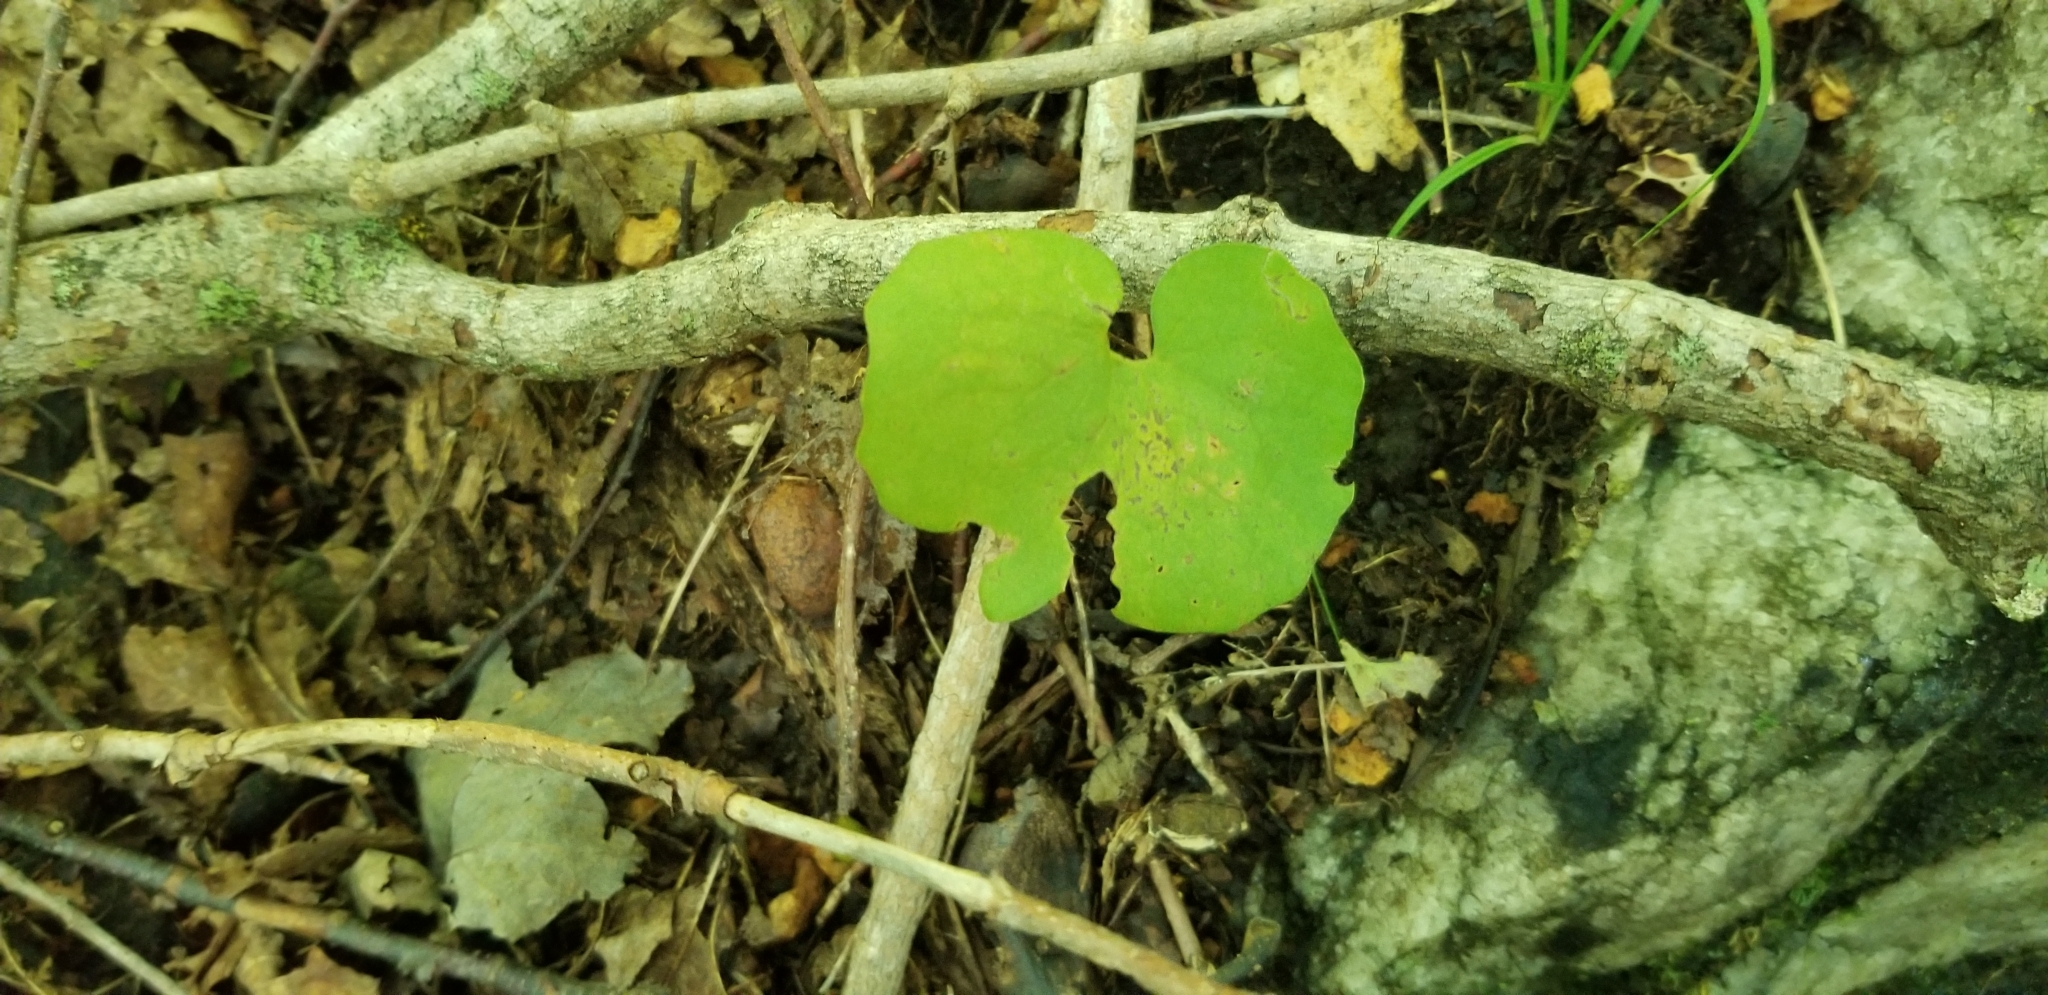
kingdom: Plantae
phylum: Tracheophyta
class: Magnoliopsida
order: Ranunculales
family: Papaveraceae
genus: Sanguinaria
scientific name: Sanguinaria canadensis
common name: Bloodroot
